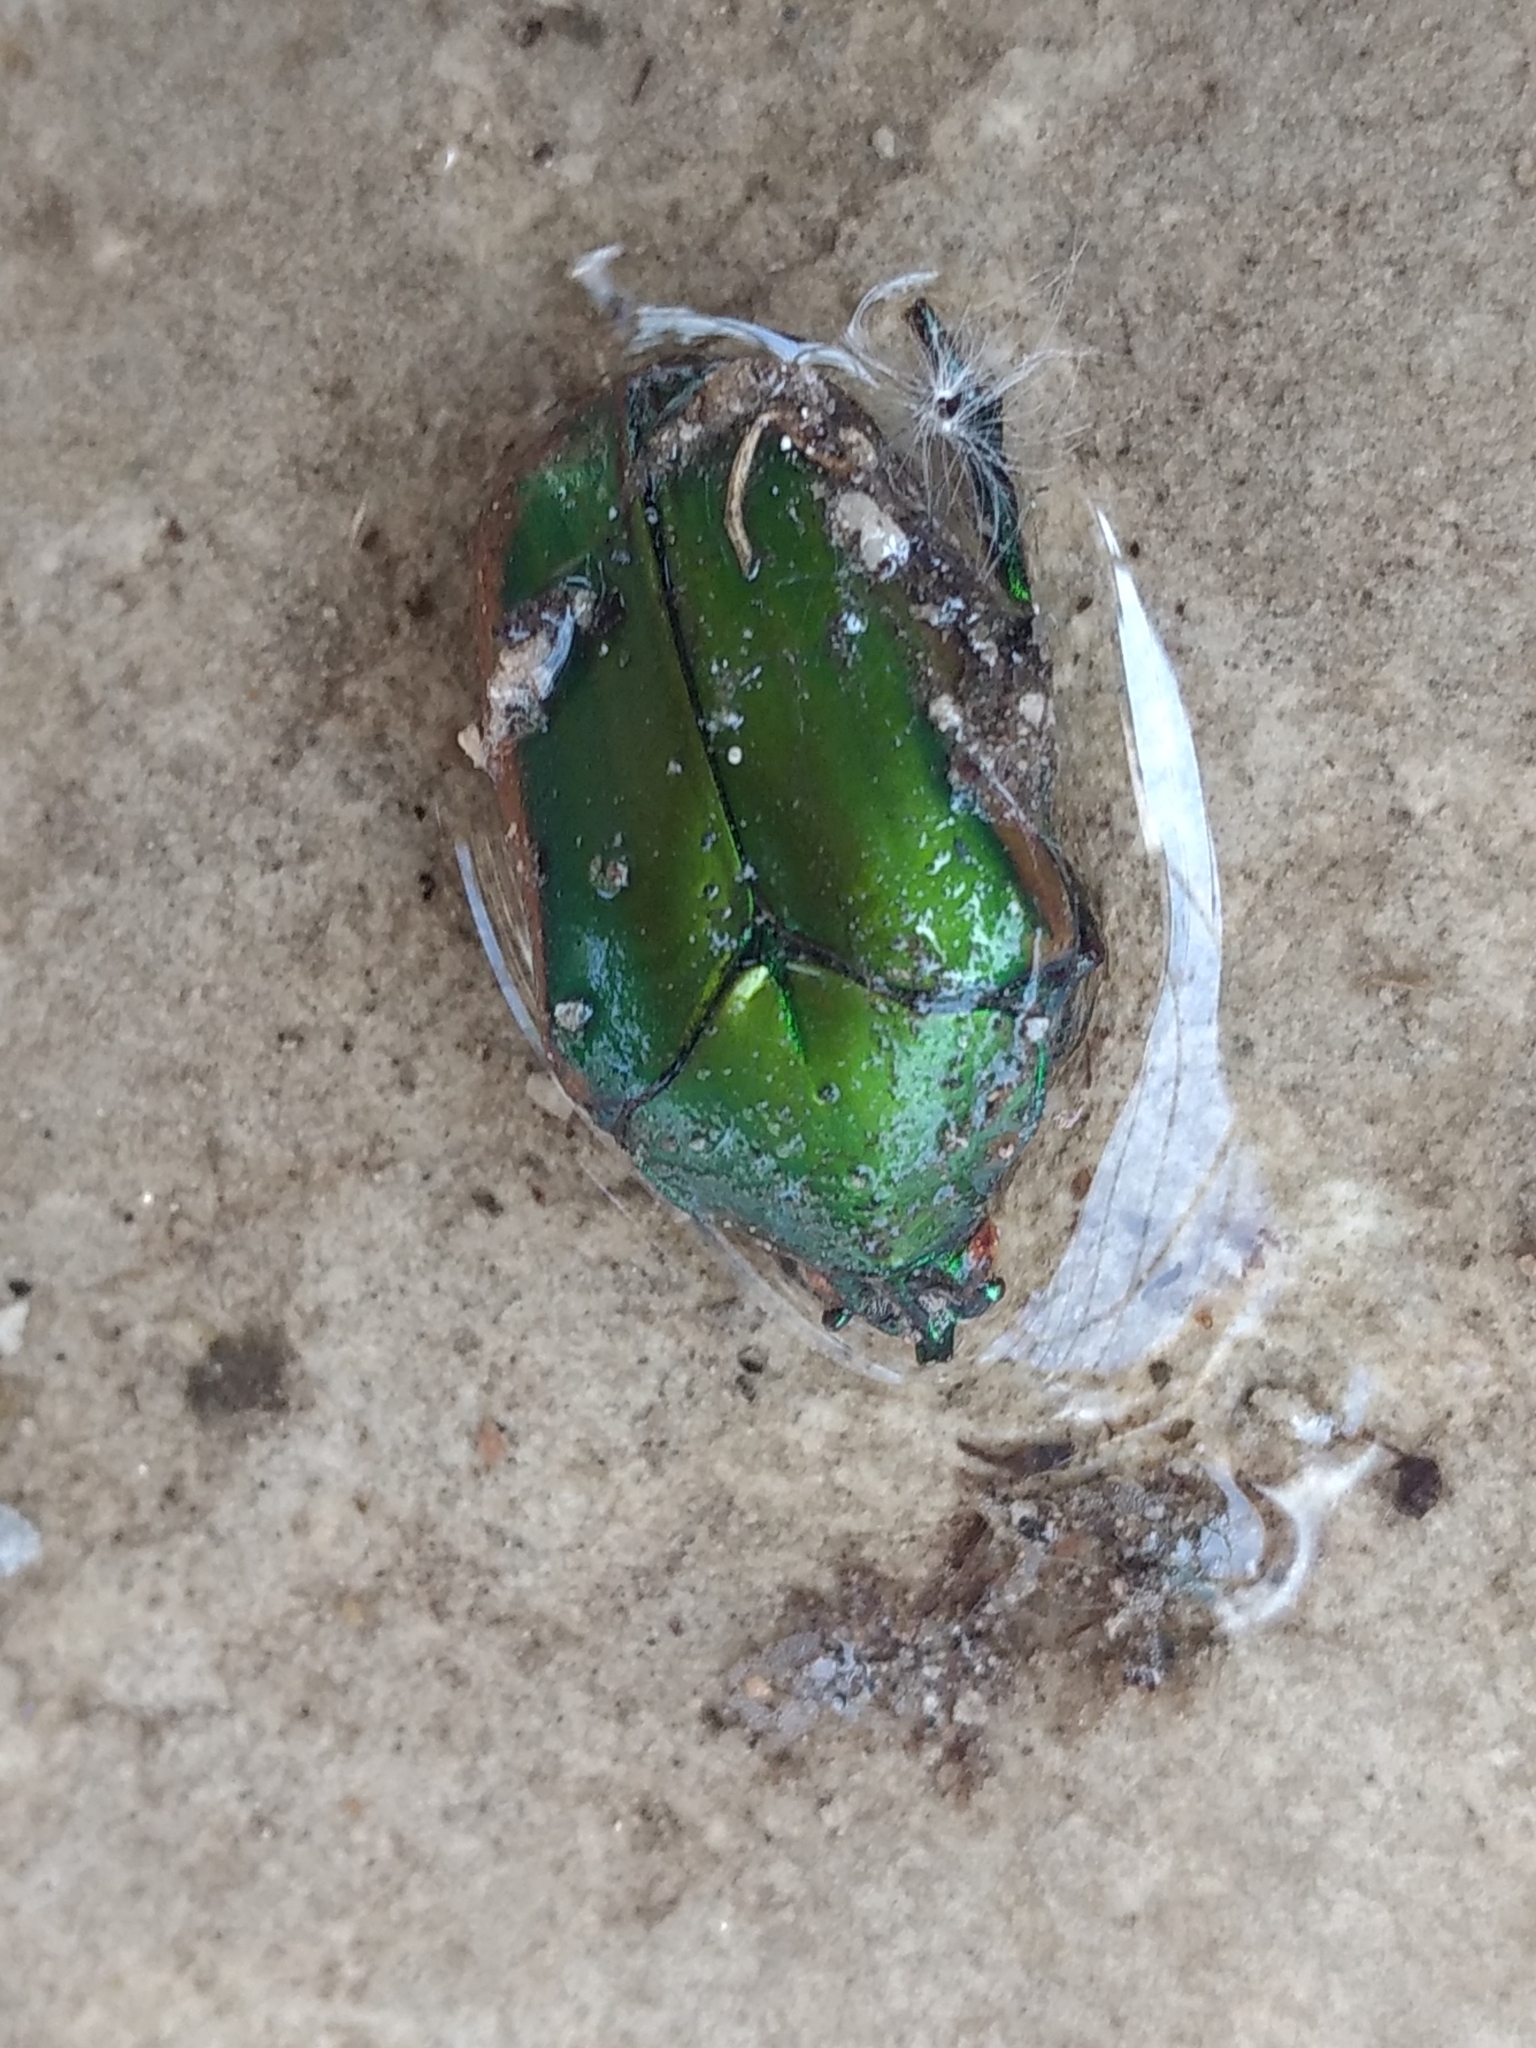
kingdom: Animalia
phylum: Arthropoda
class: Insecta
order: Coleoptera
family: Scarabaeidae
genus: Cotinis
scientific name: Cotinis mutabilis
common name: Figeater beetle
